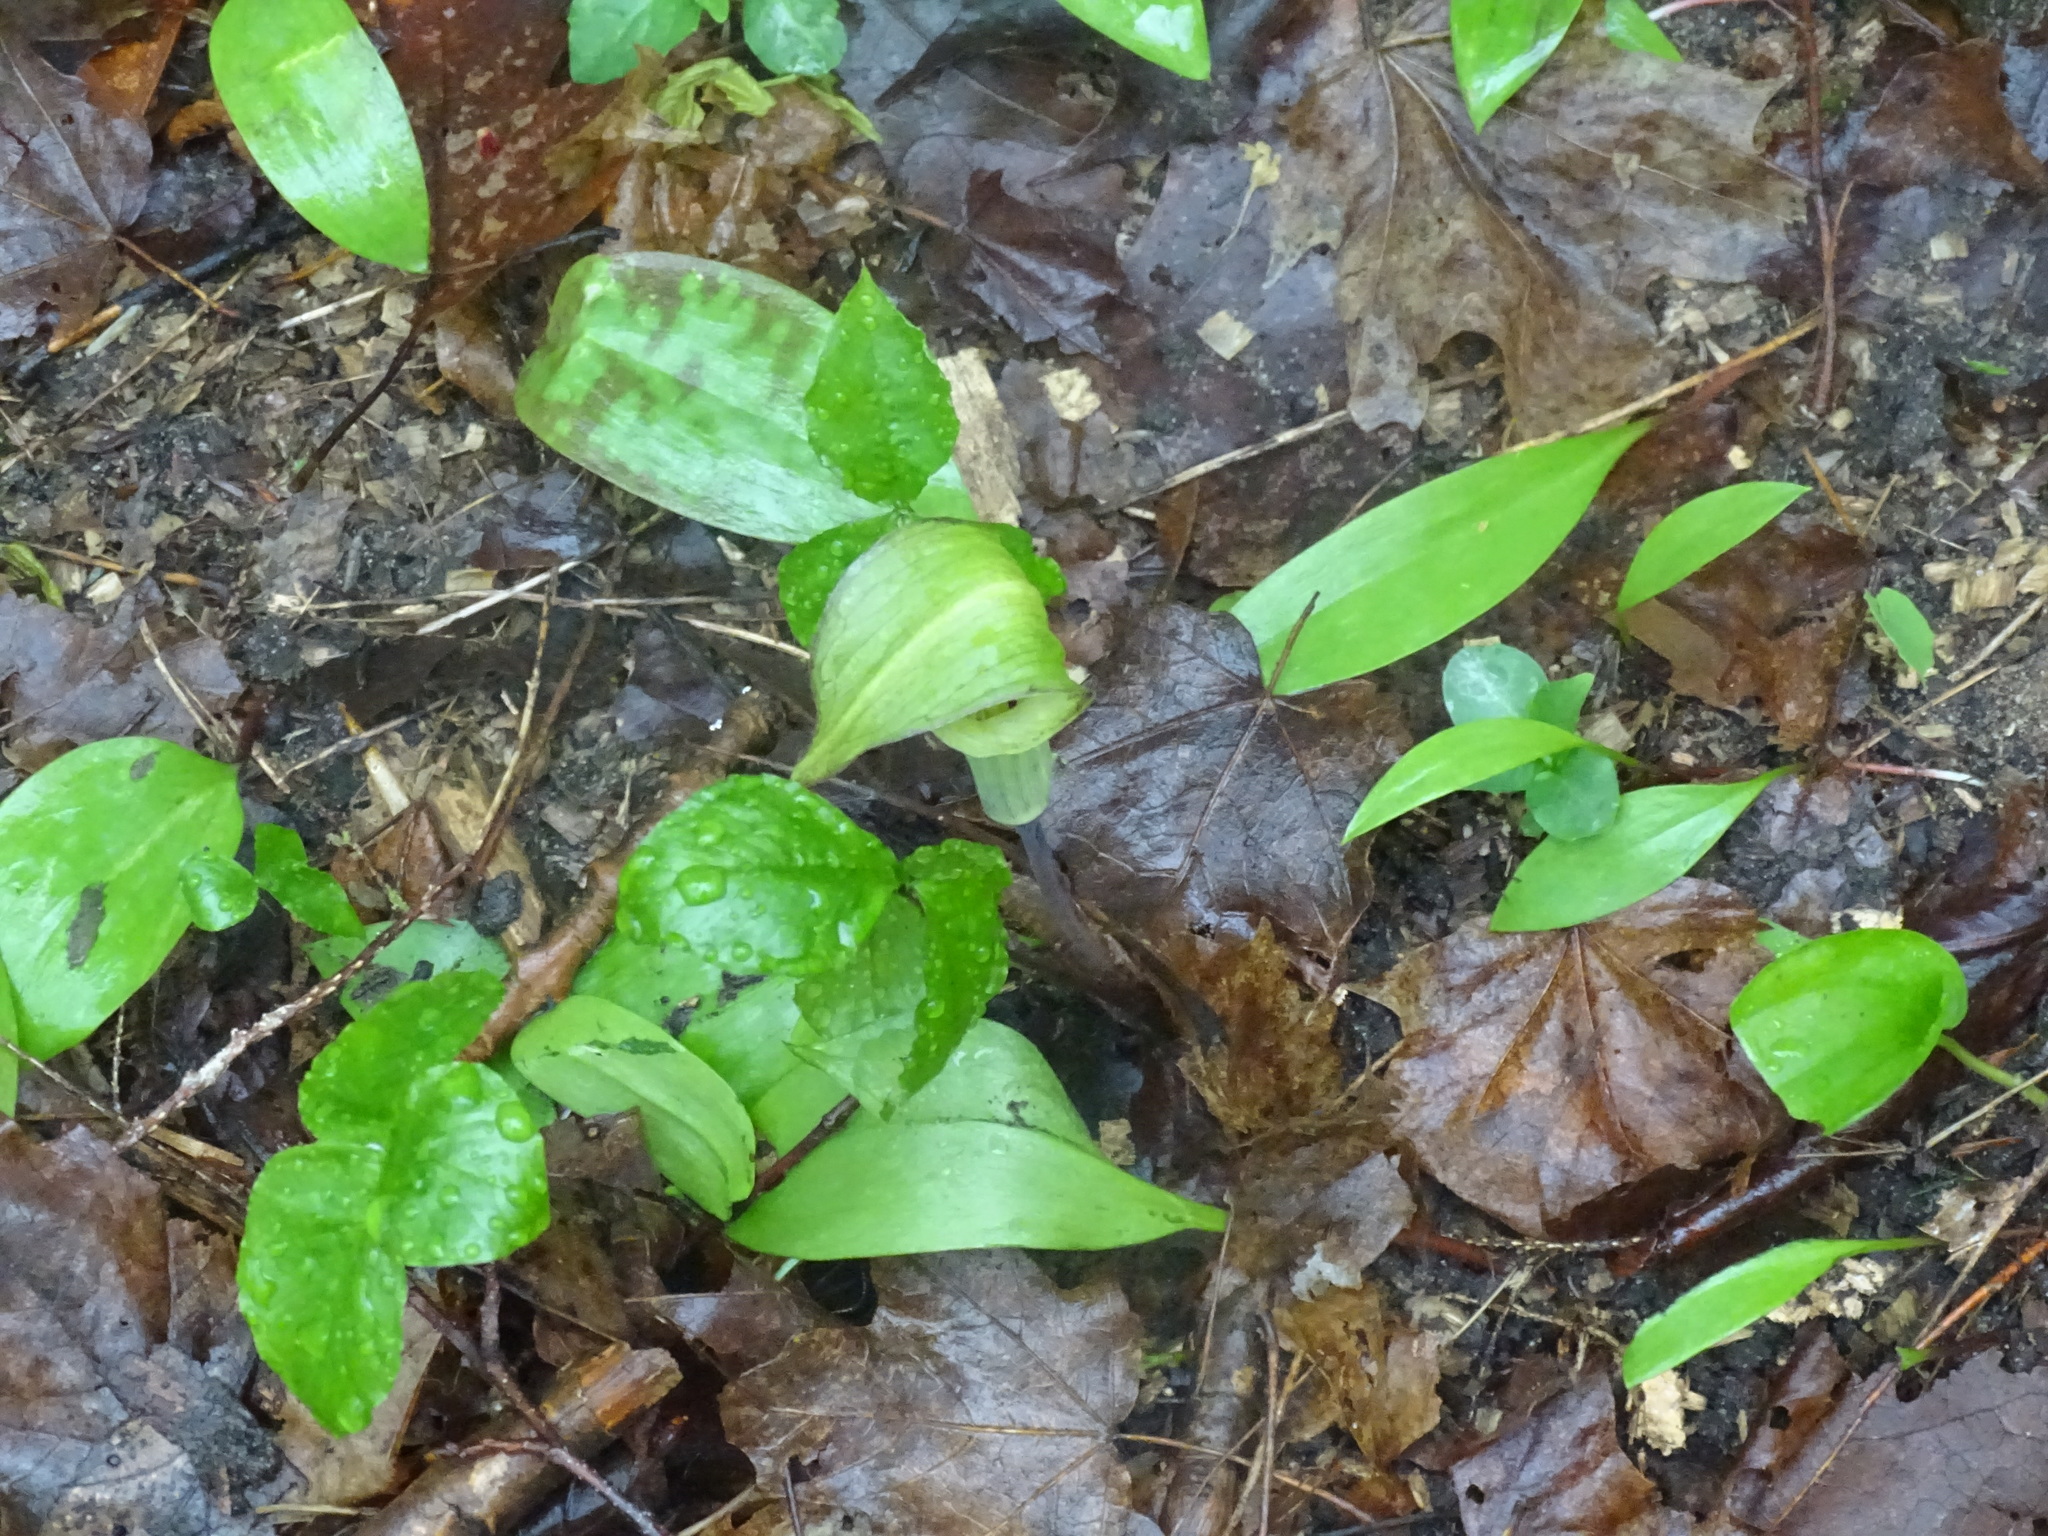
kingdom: Plantae
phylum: Tracheophyta
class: Liliopsida
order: Asparagales
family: Asparagaceae
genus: Maianthemum
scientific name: Maianthemum canadense
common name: False lily-of-the-valley
